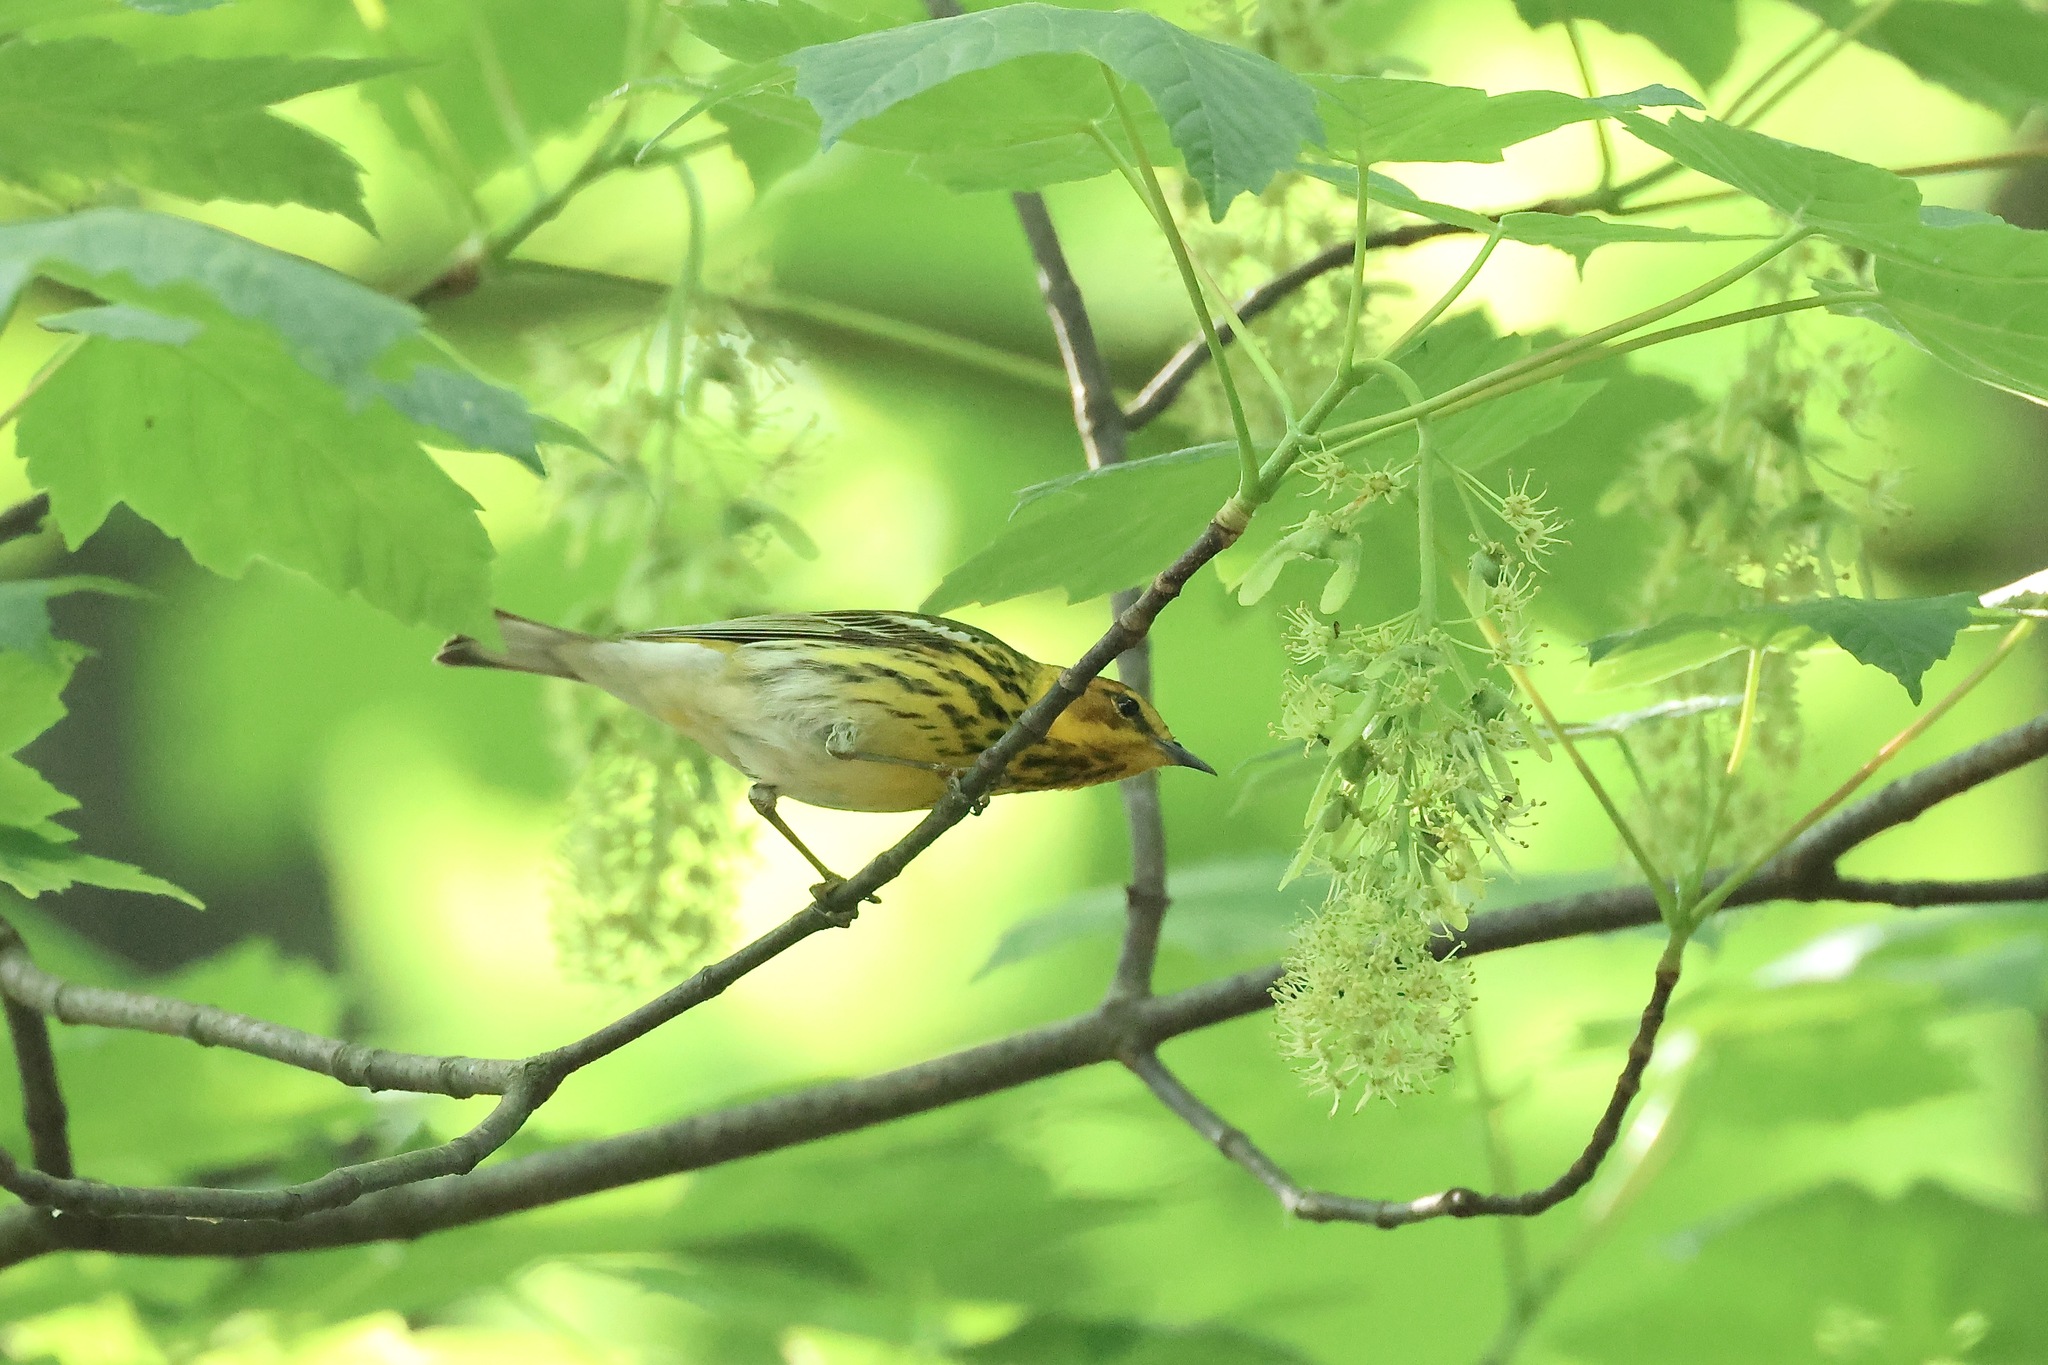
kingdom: Animalia
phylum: Chordata
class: Aves
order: Passeriformes
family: Parulidae
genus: Setophaga
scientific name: Setophaga tigrina
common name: Cape may warbler
